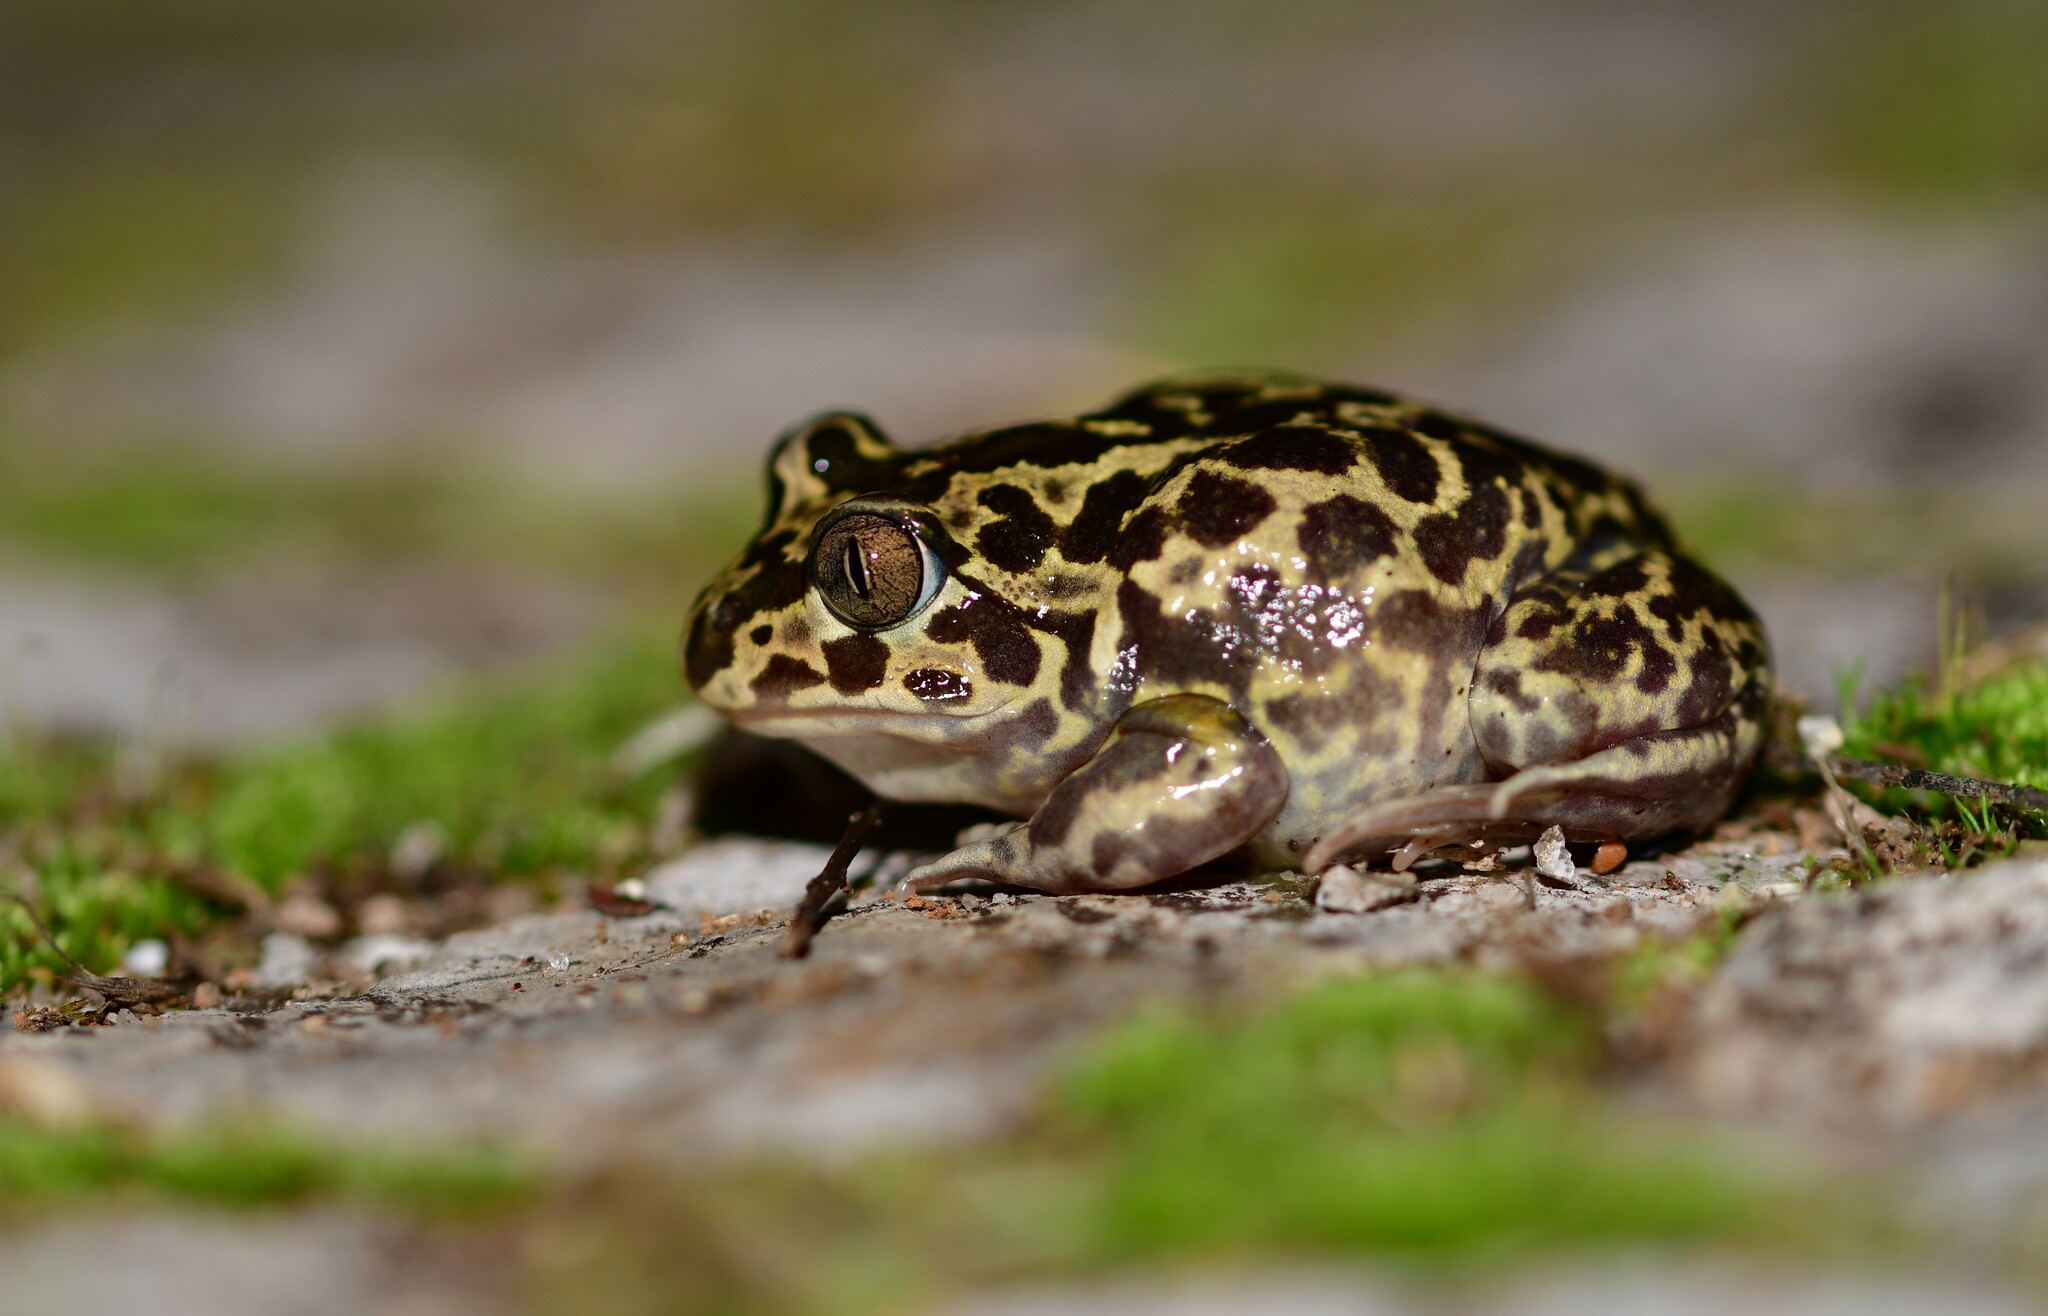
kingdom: Animalia
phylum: Chordata
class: Amphibia
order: Anura
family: Pelobatidae
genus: Pelobates
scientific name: Pelobates cultripes
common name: Western spadefoot
